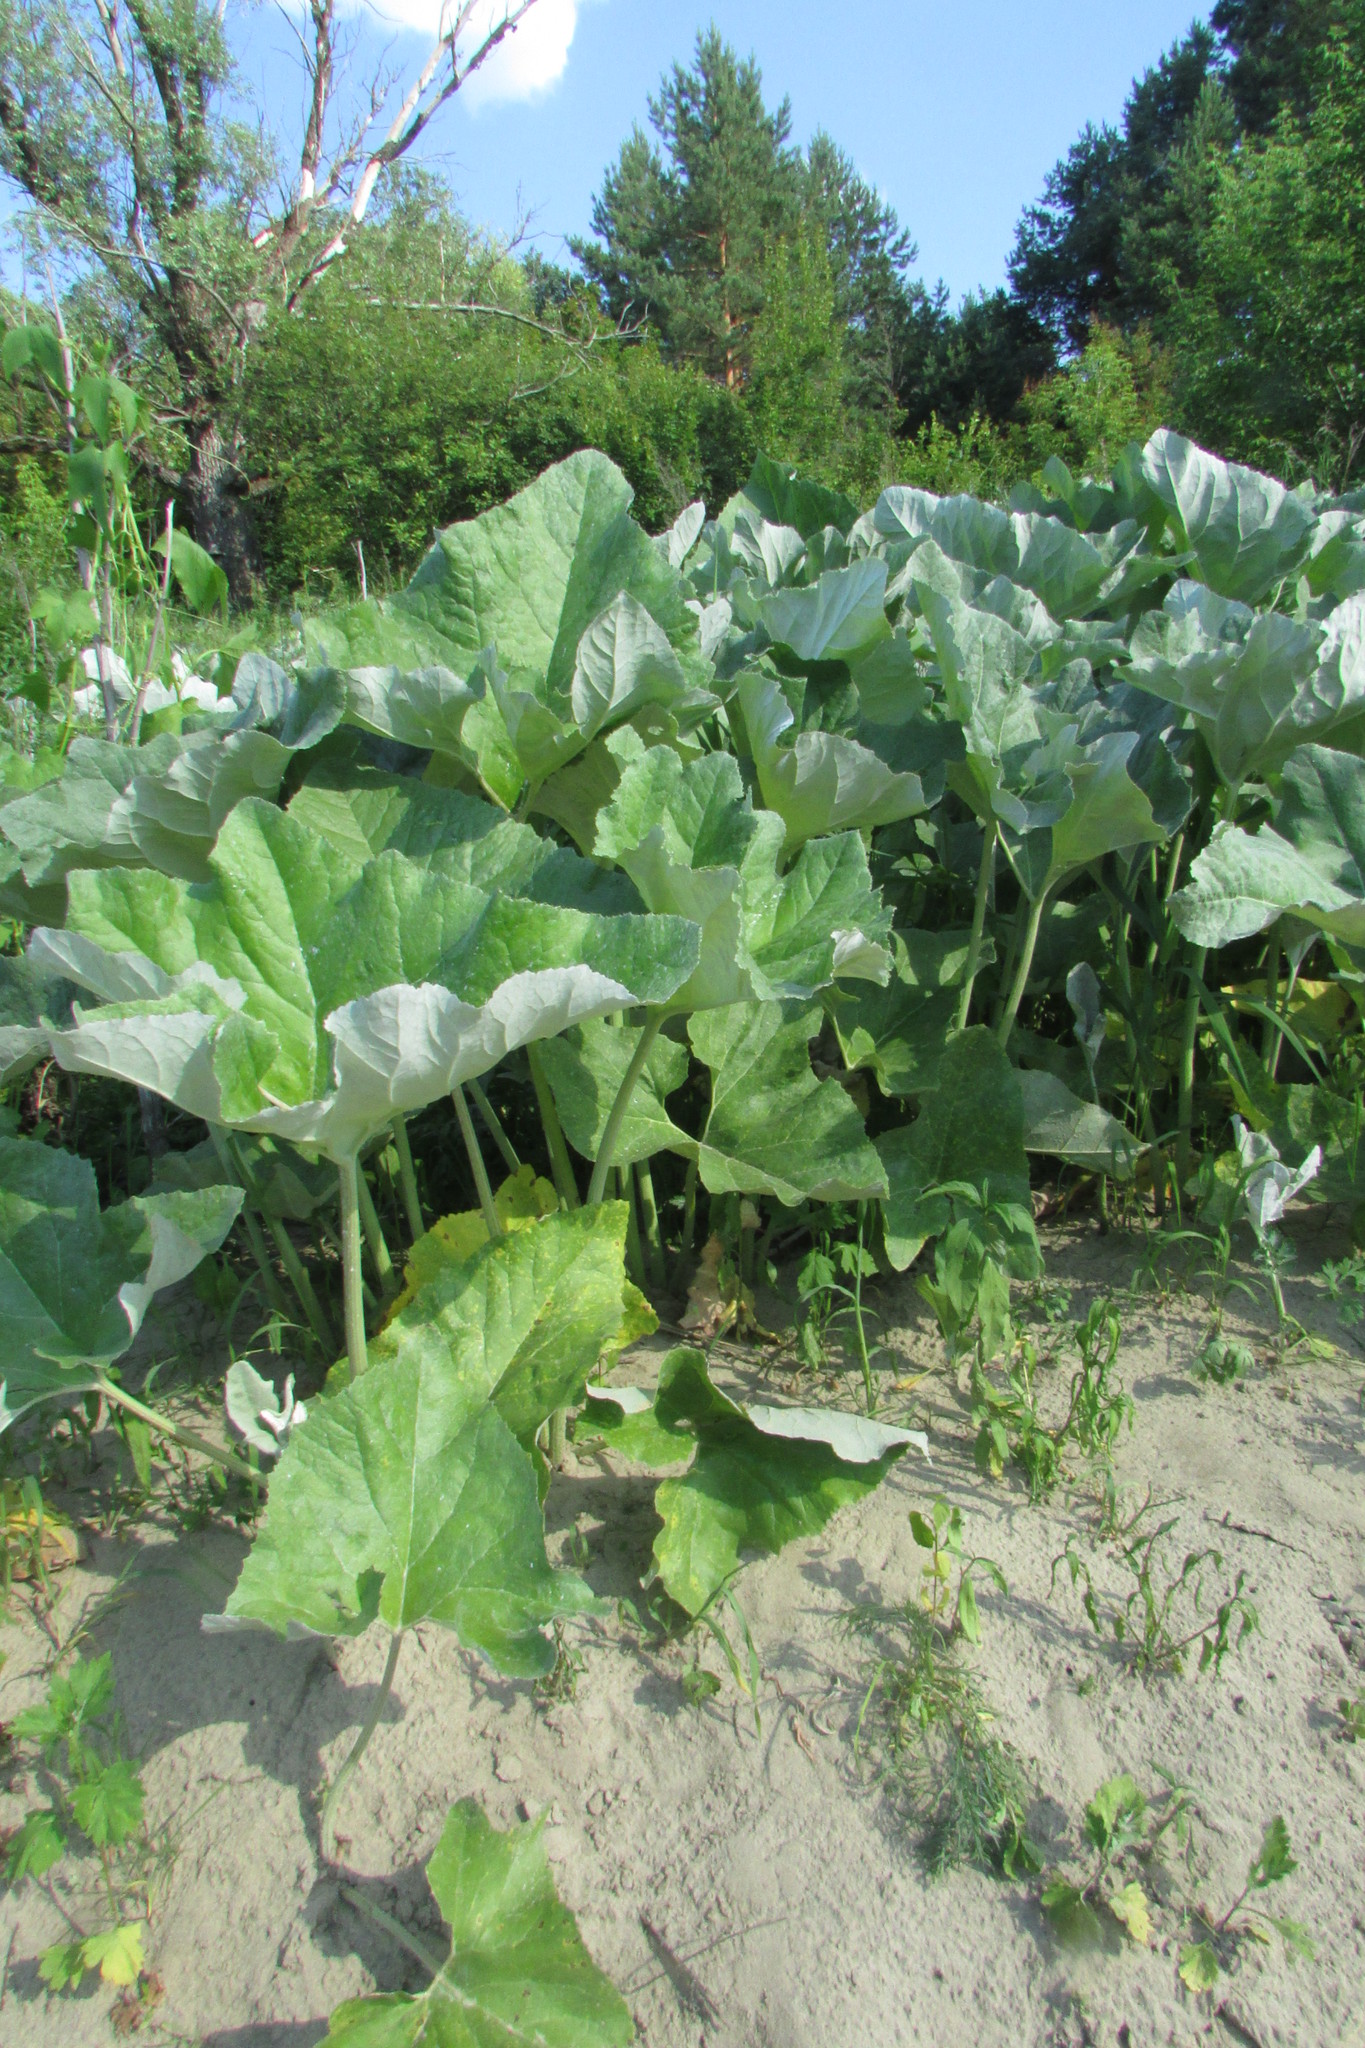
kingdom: Plantae
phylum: Tracheophyta
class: Magnoliopsida
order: Asterales
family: Asteraceae
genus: Petasites
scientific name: Petasites spurius
